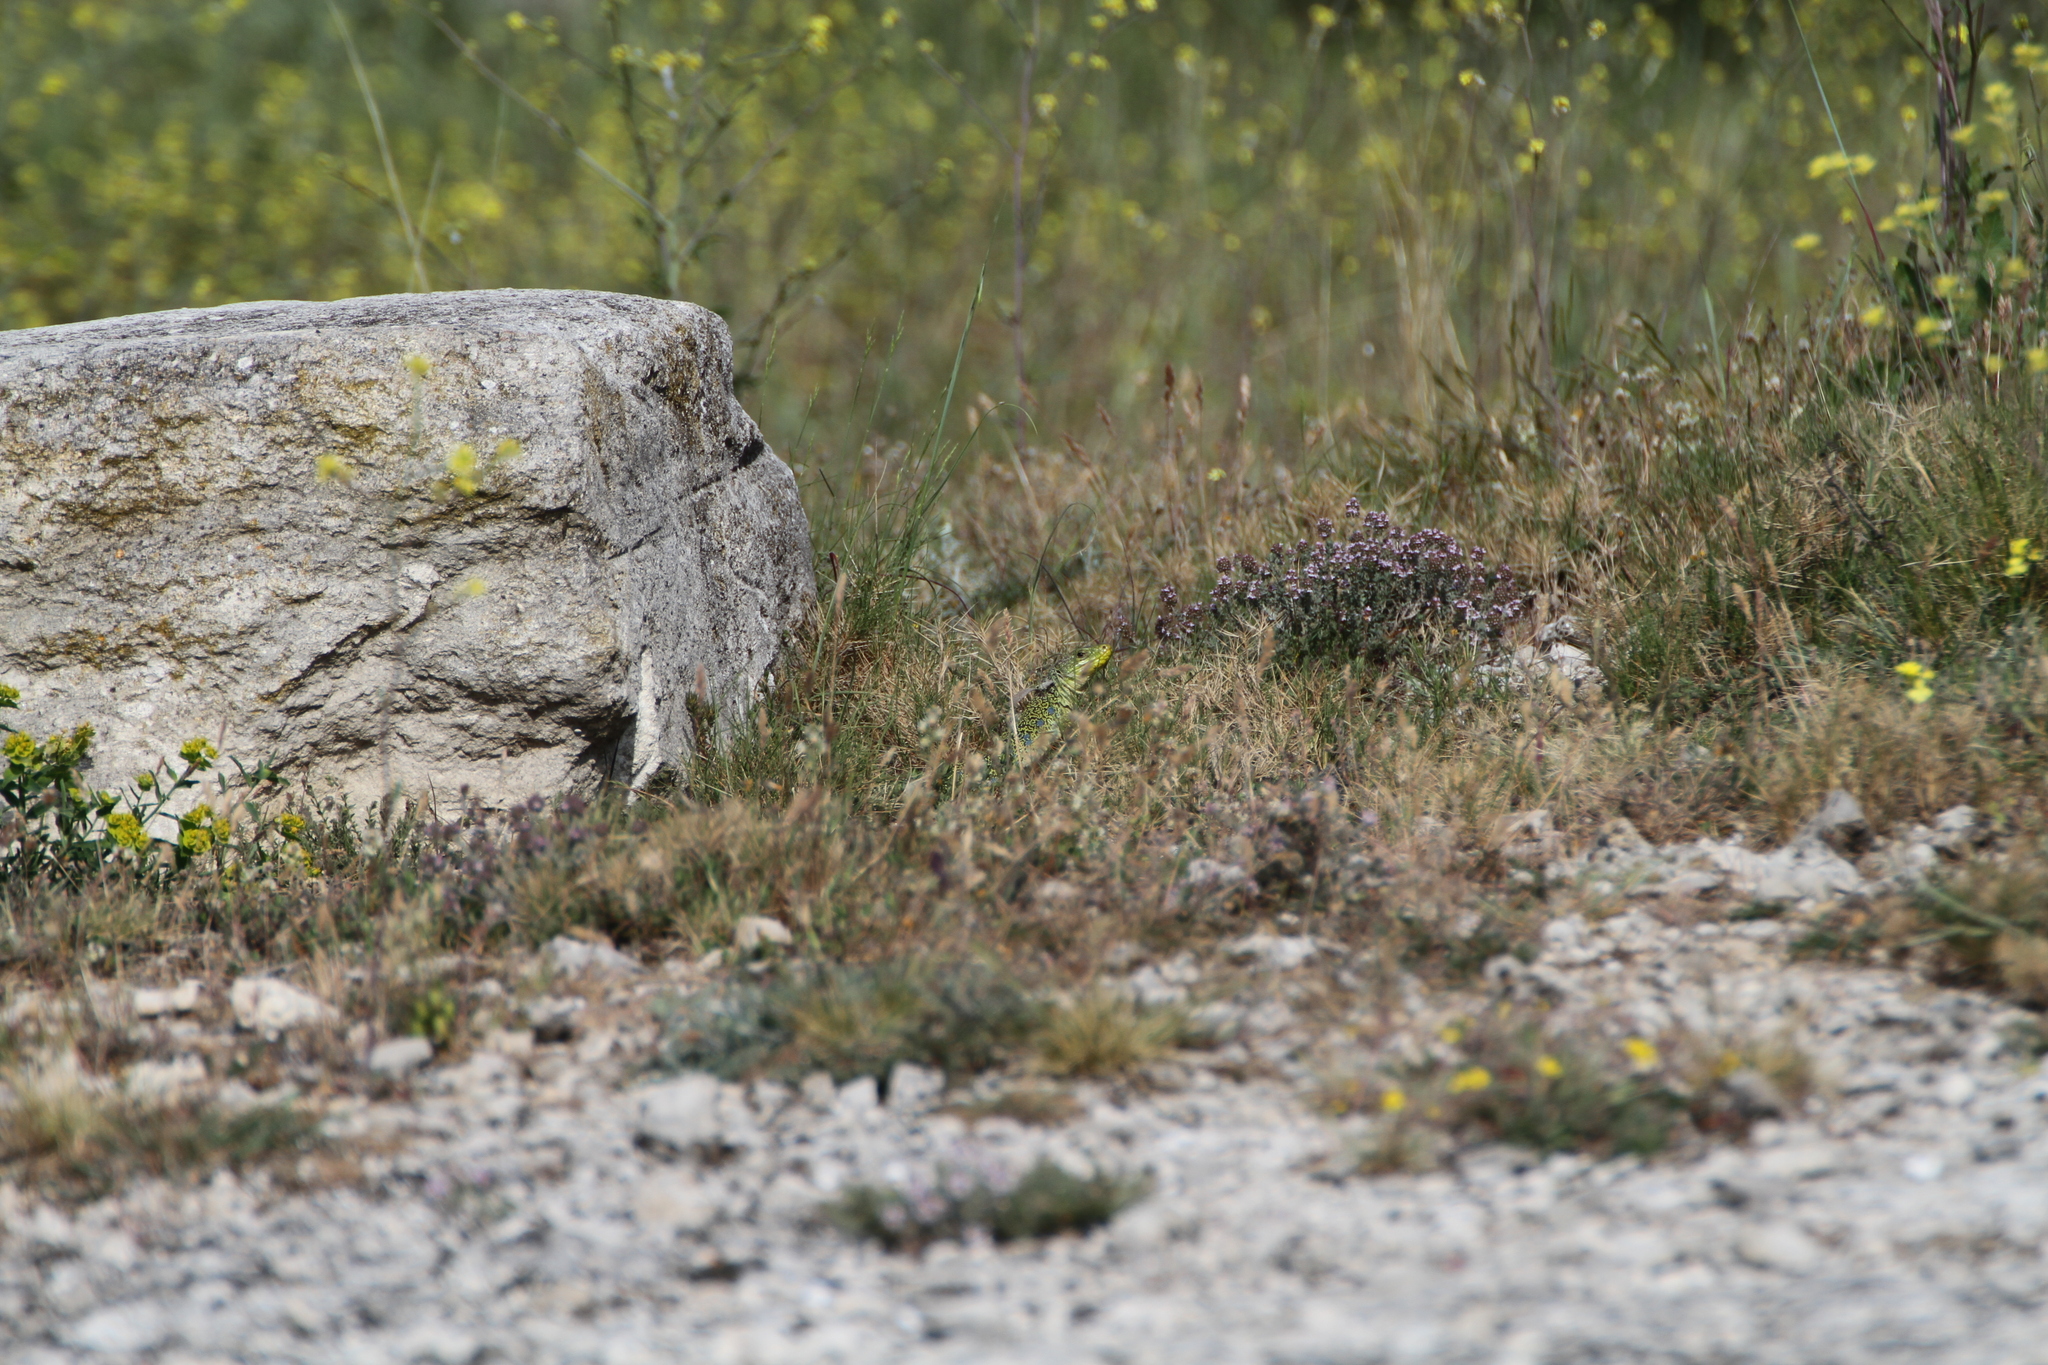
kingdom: Animalia
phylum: Chordata
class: Squamata
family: Lacertidae
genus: Timon
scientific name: Timon lepidus
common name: Ocellated lizard
